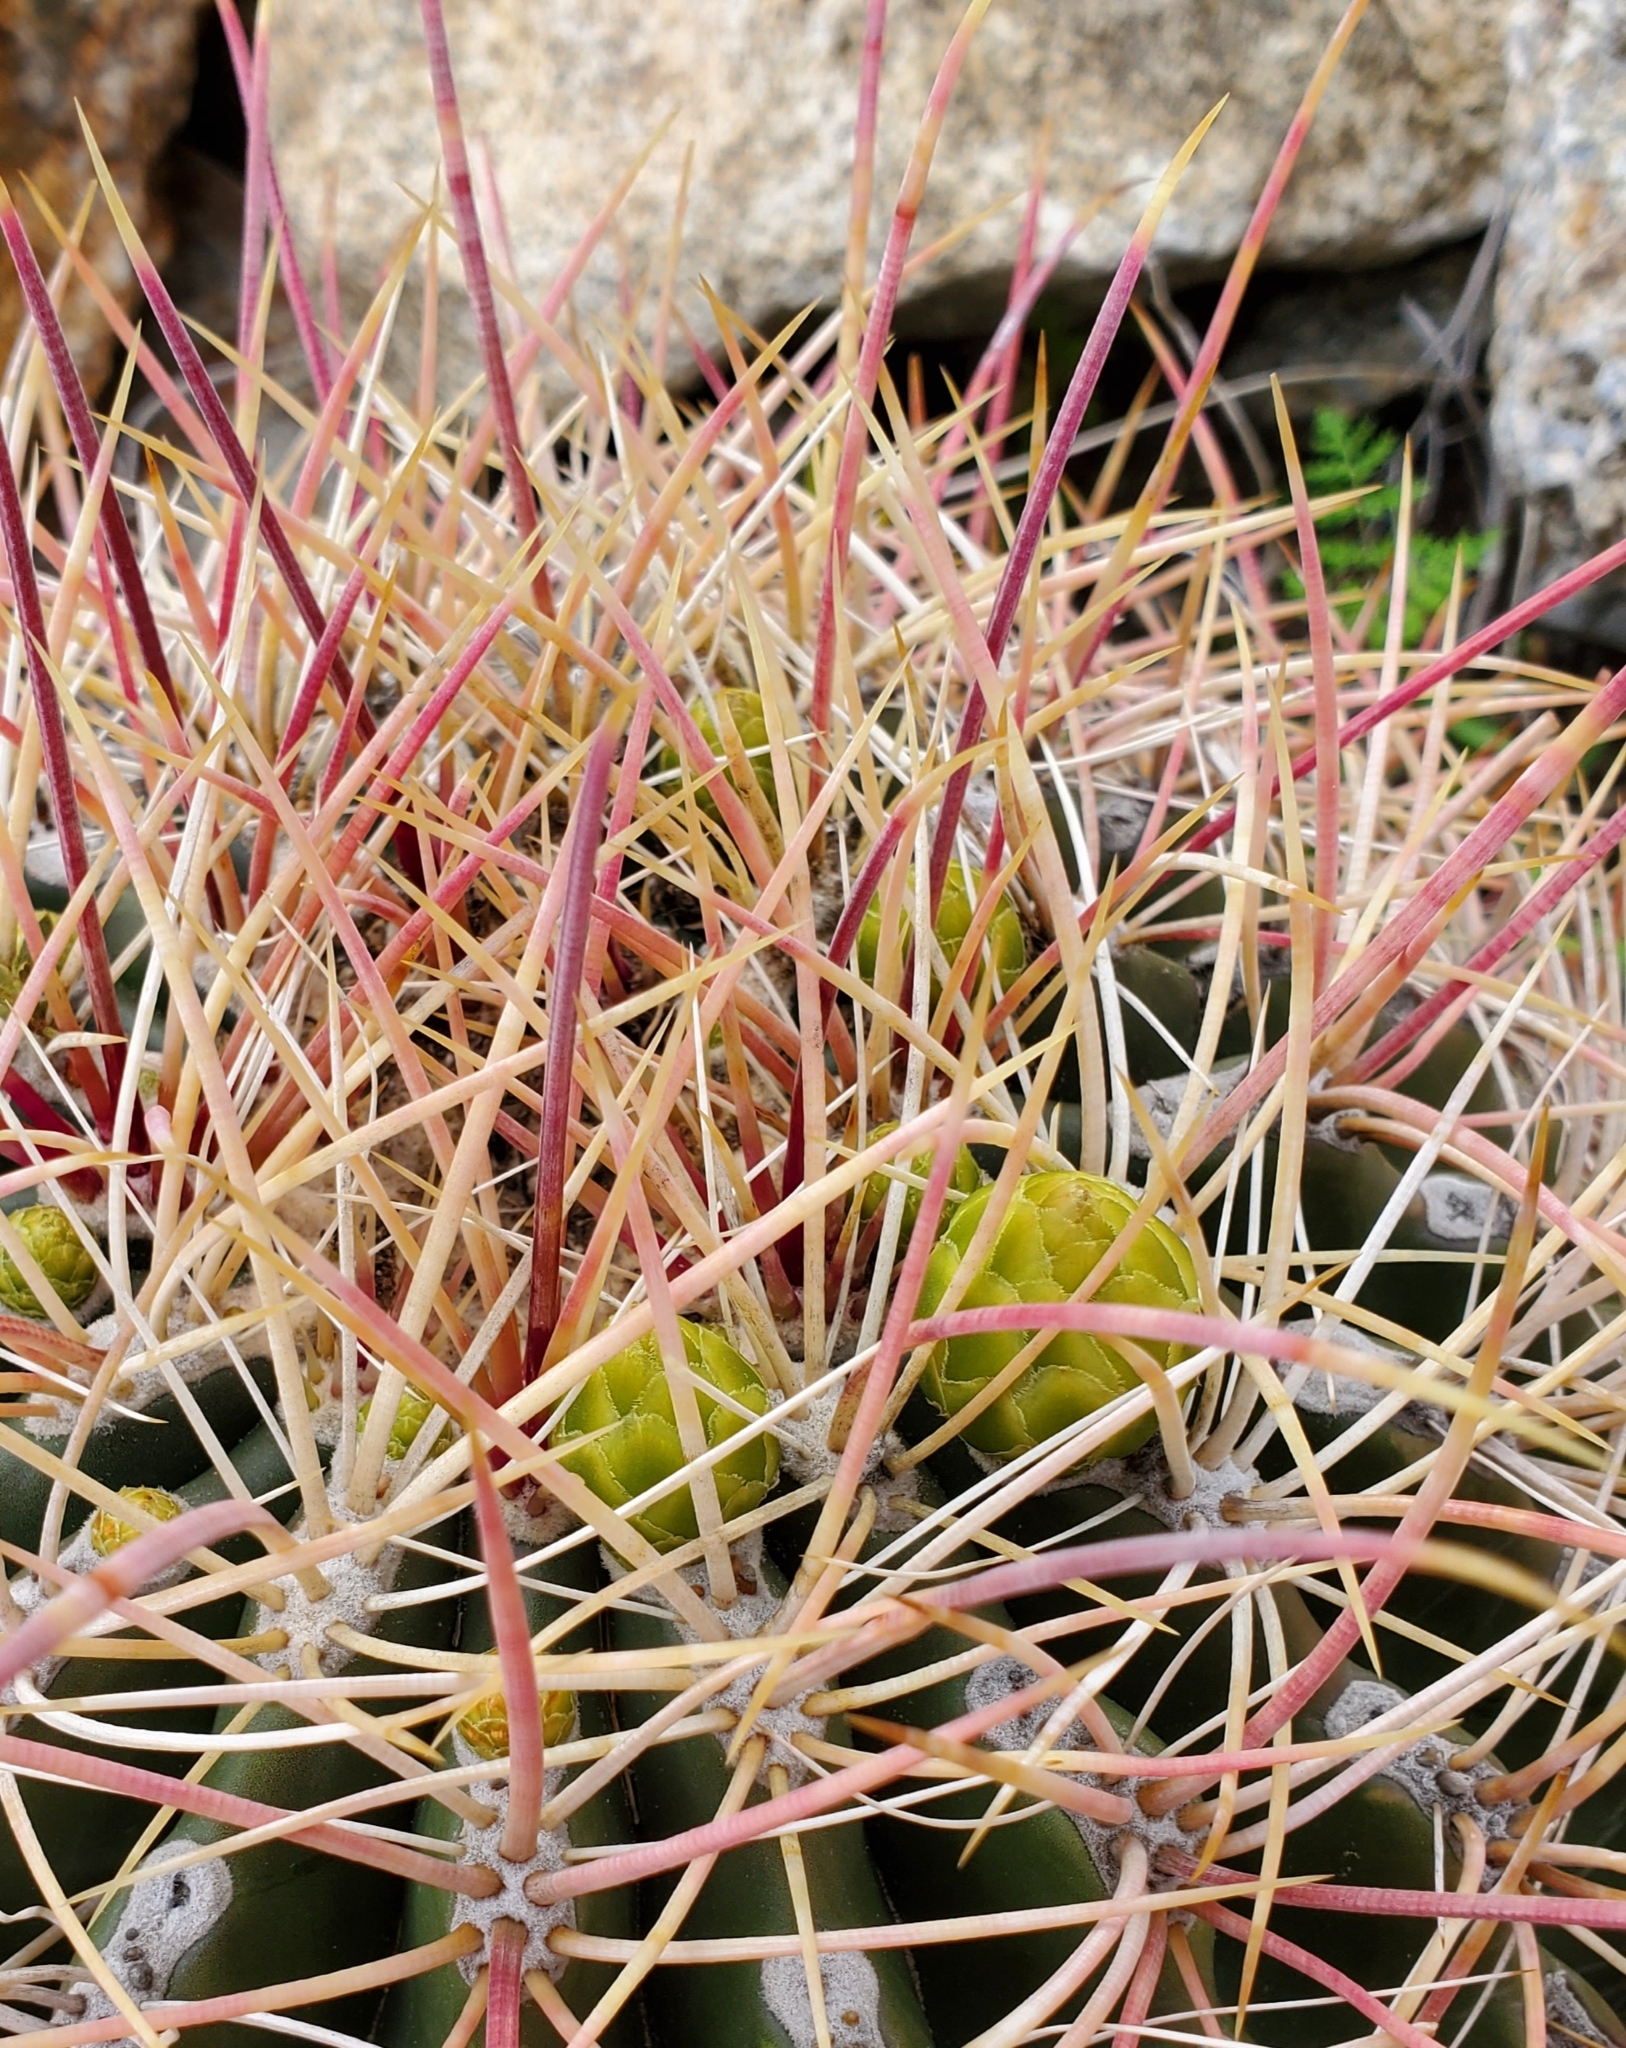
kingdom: Plantae
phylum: Tracheophyta
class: Magnoliopsida
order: Caryophyllales
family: Cactaceae
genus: Ferocactus
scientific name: Ferocactus cylindraceus
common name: California barrel cactus
